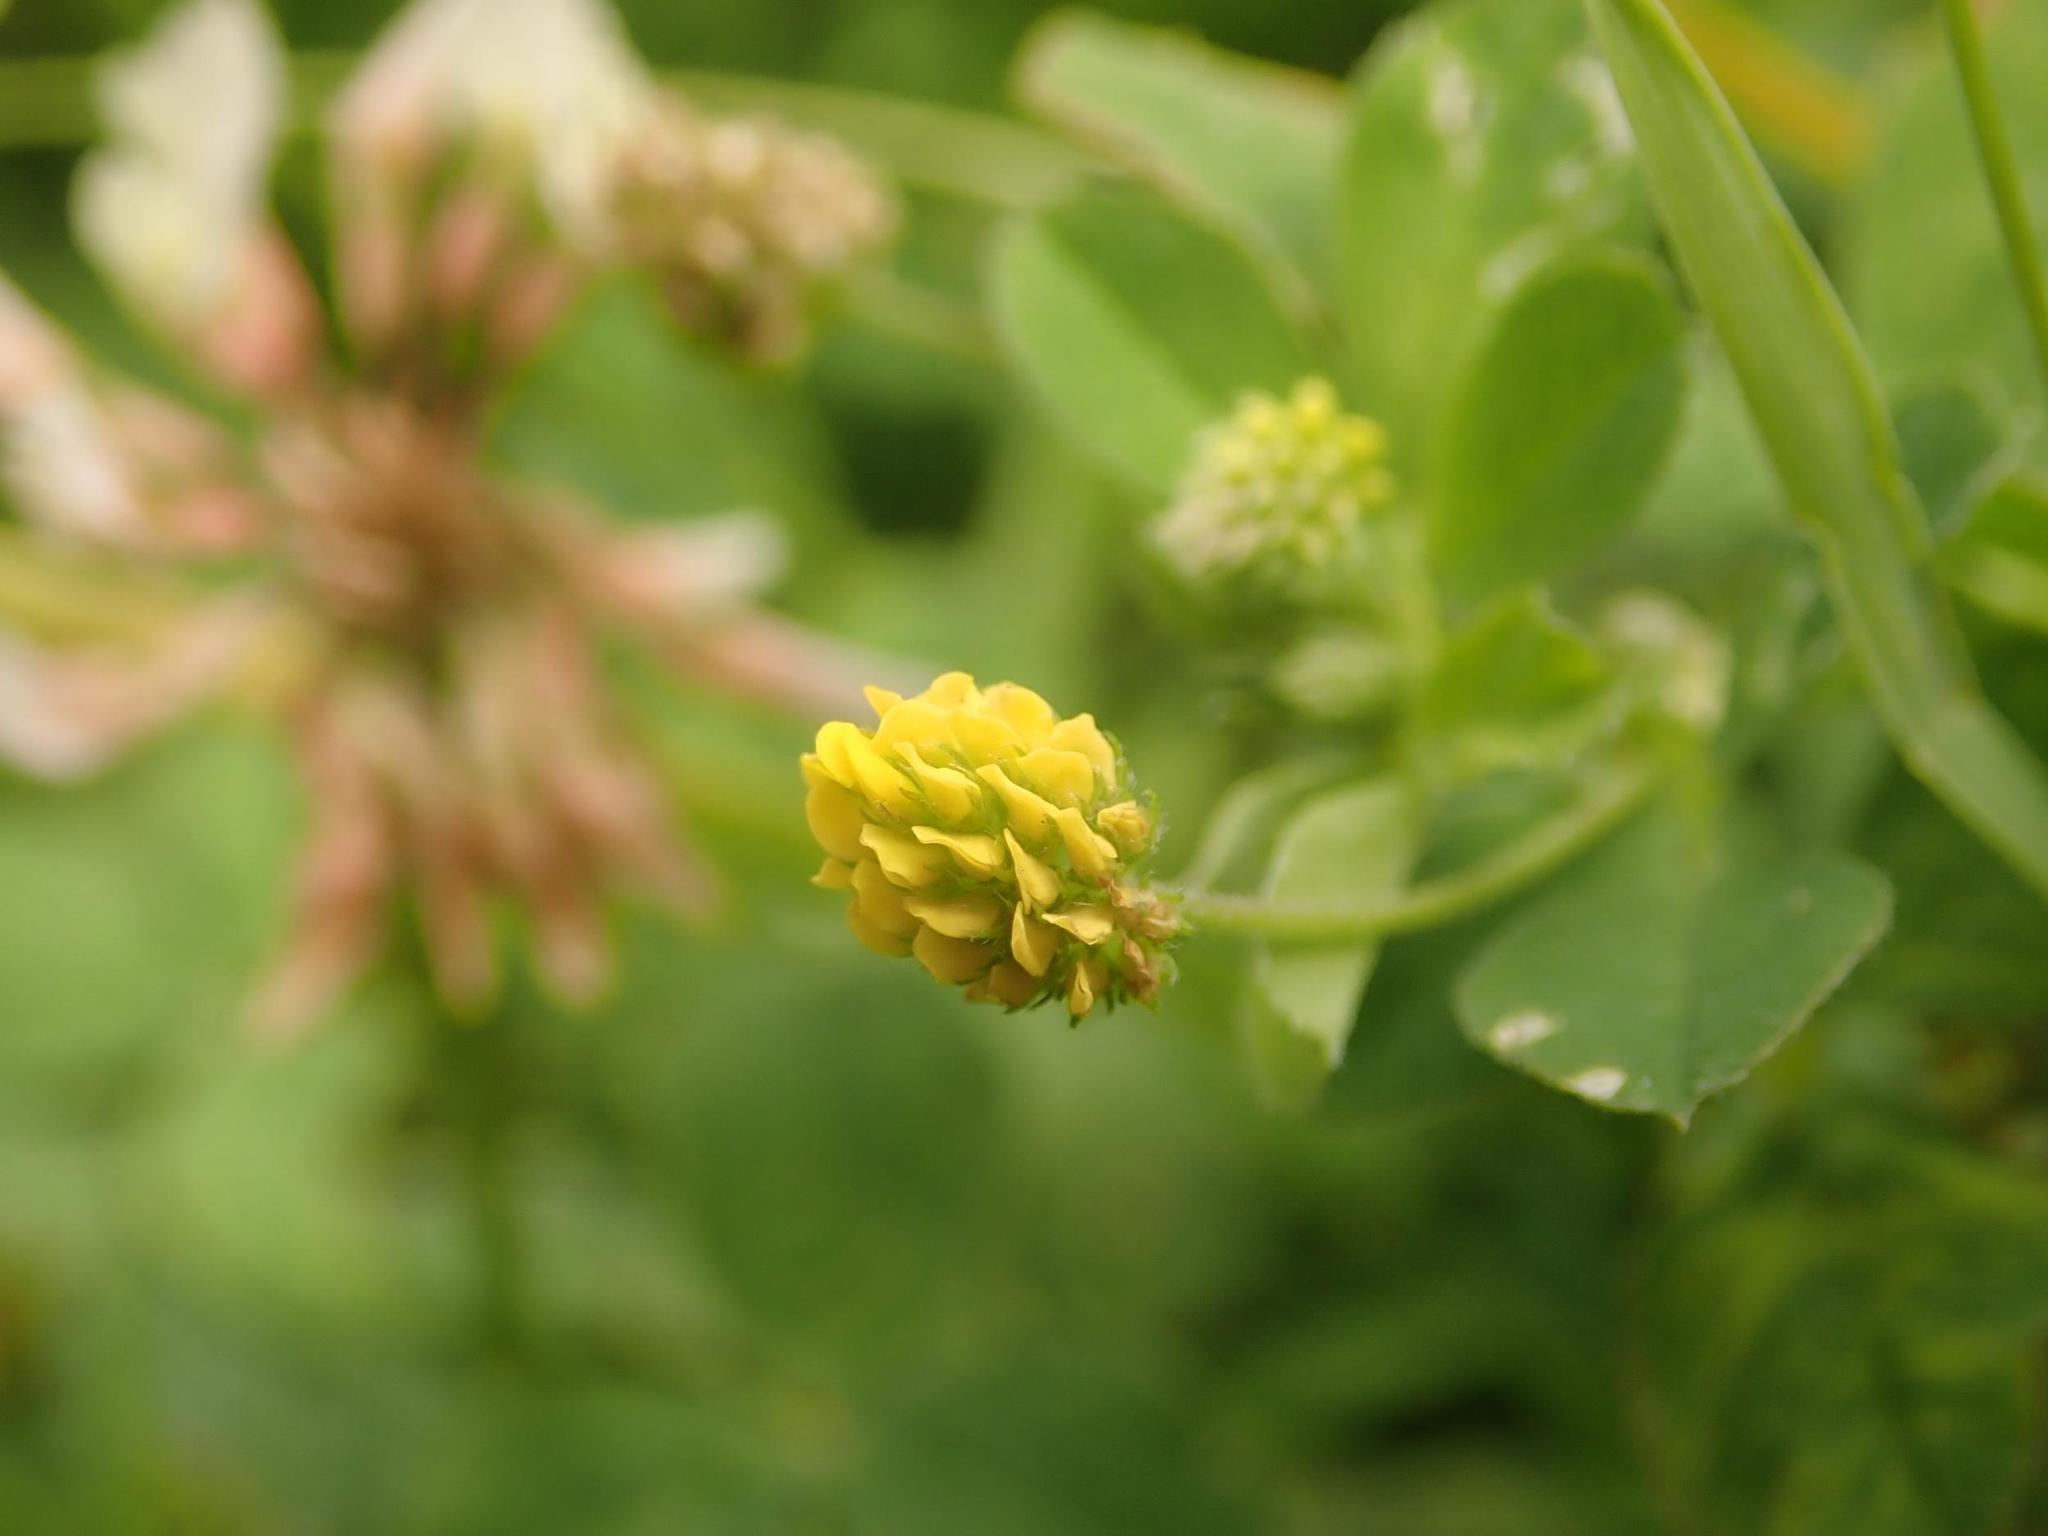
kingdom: Plantae
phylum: Tracheophyta
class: Magnoliopsida
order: Fabales
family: Fabaceae
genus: Medicago
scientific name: Medicago lupulina
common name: Black medick
